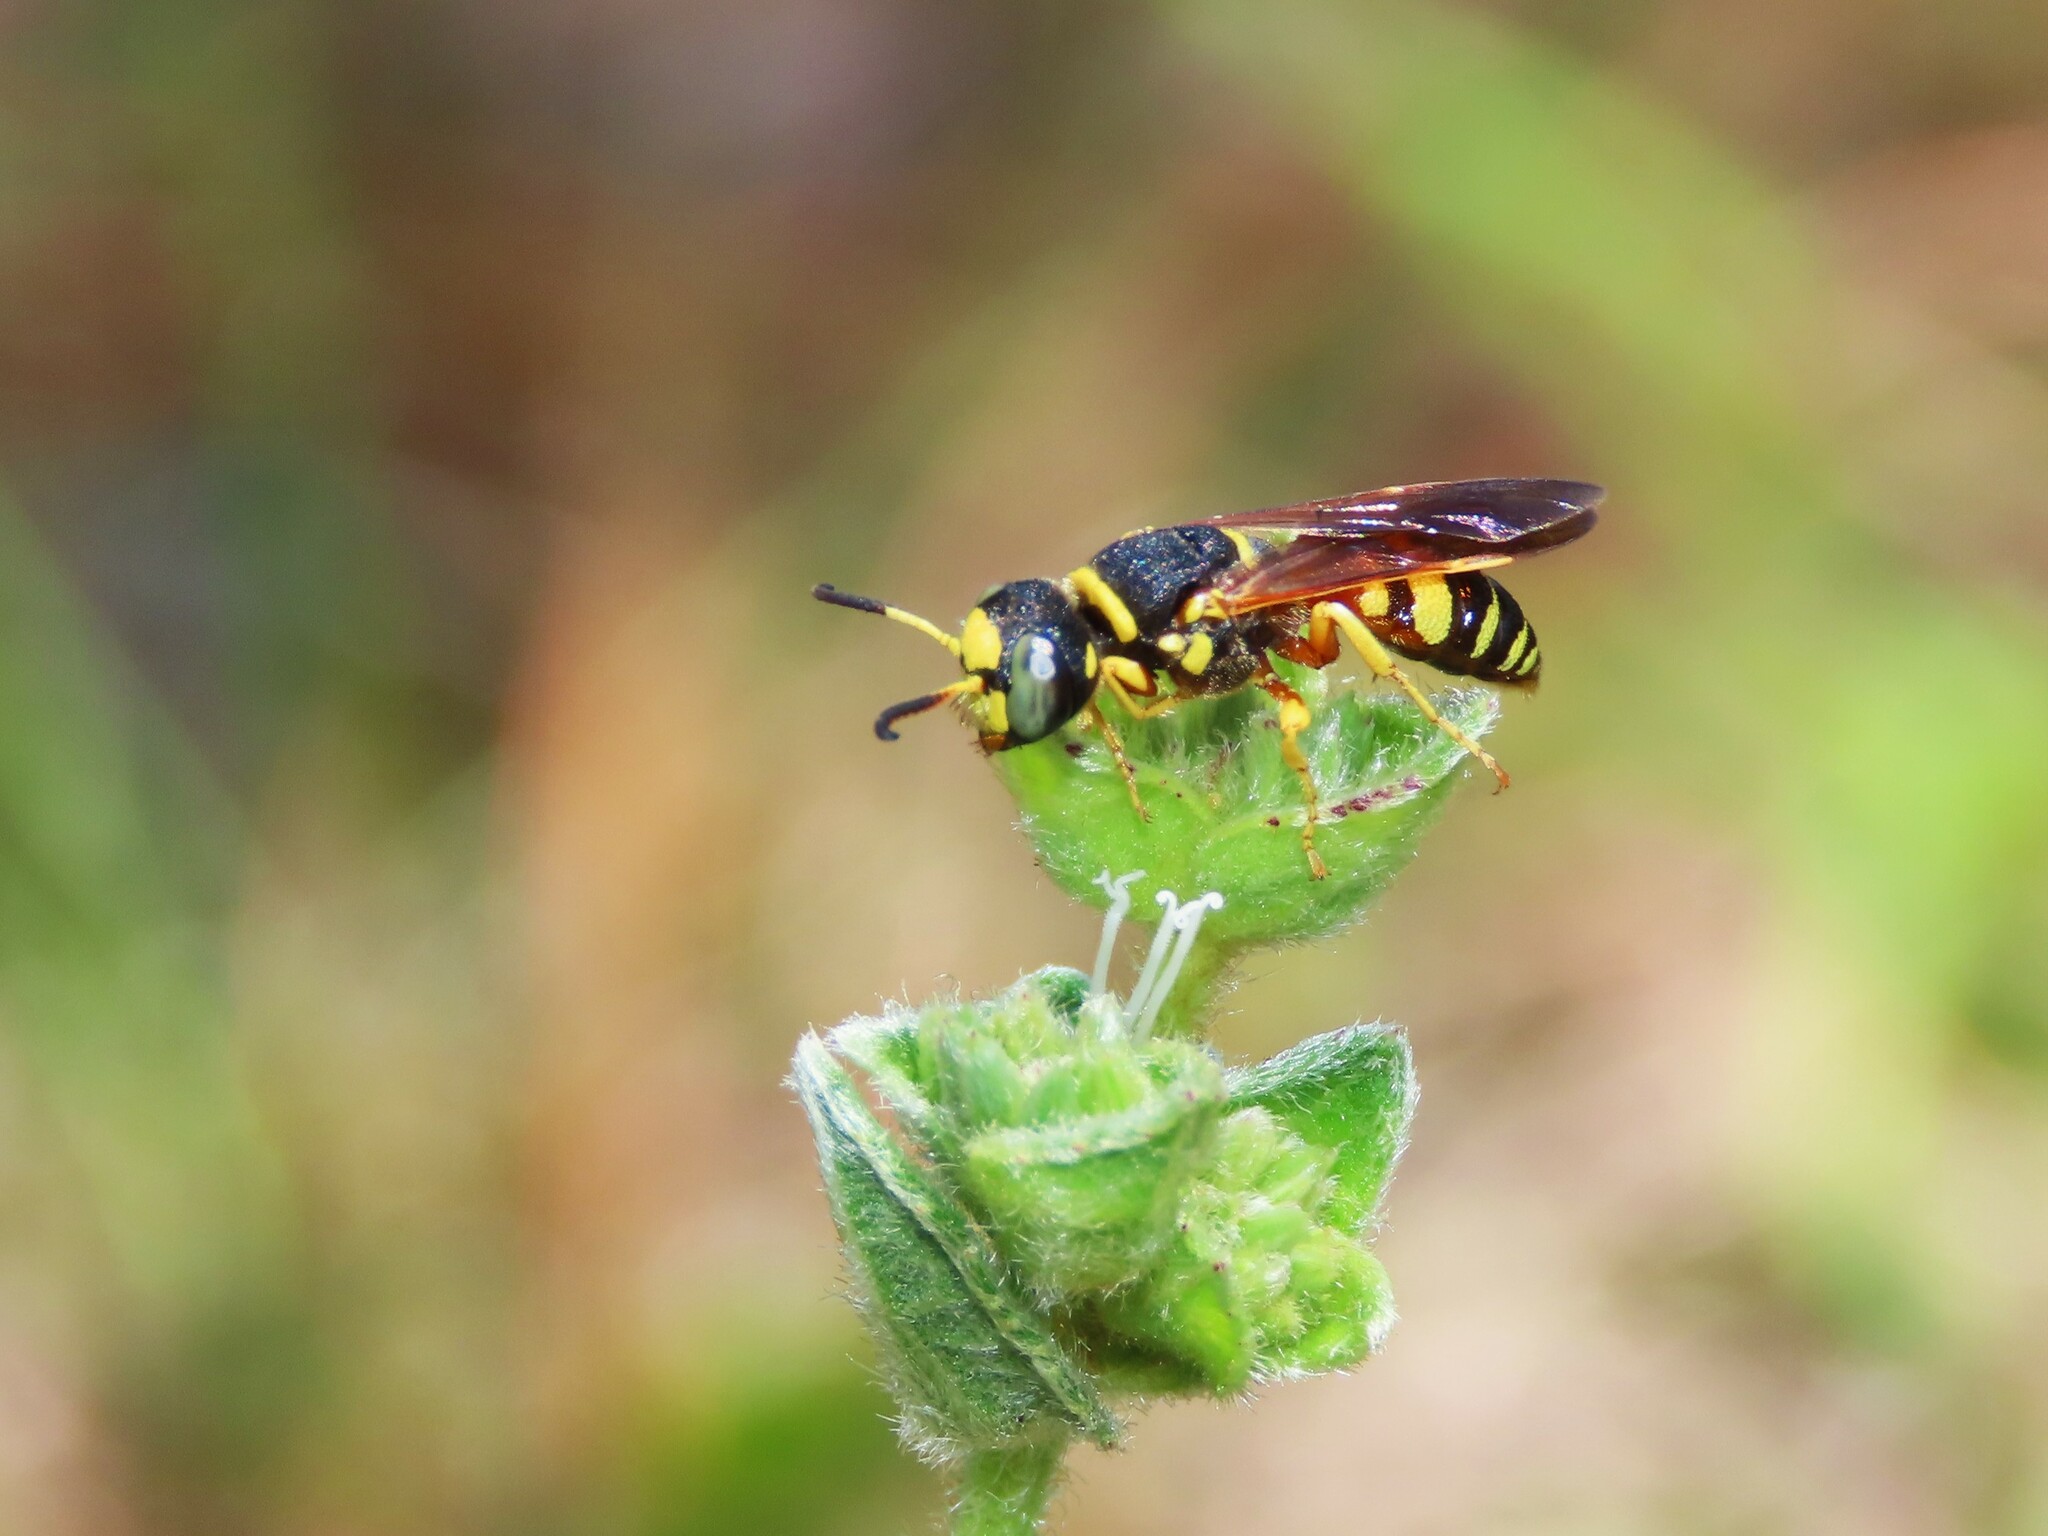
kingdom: Animalia
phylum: Arthropoda
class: Insecta
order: Hymenoptera
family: Crabronidae
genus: Philanthus
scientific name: Philanthus ventilabris
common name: Bee-killer wasp
